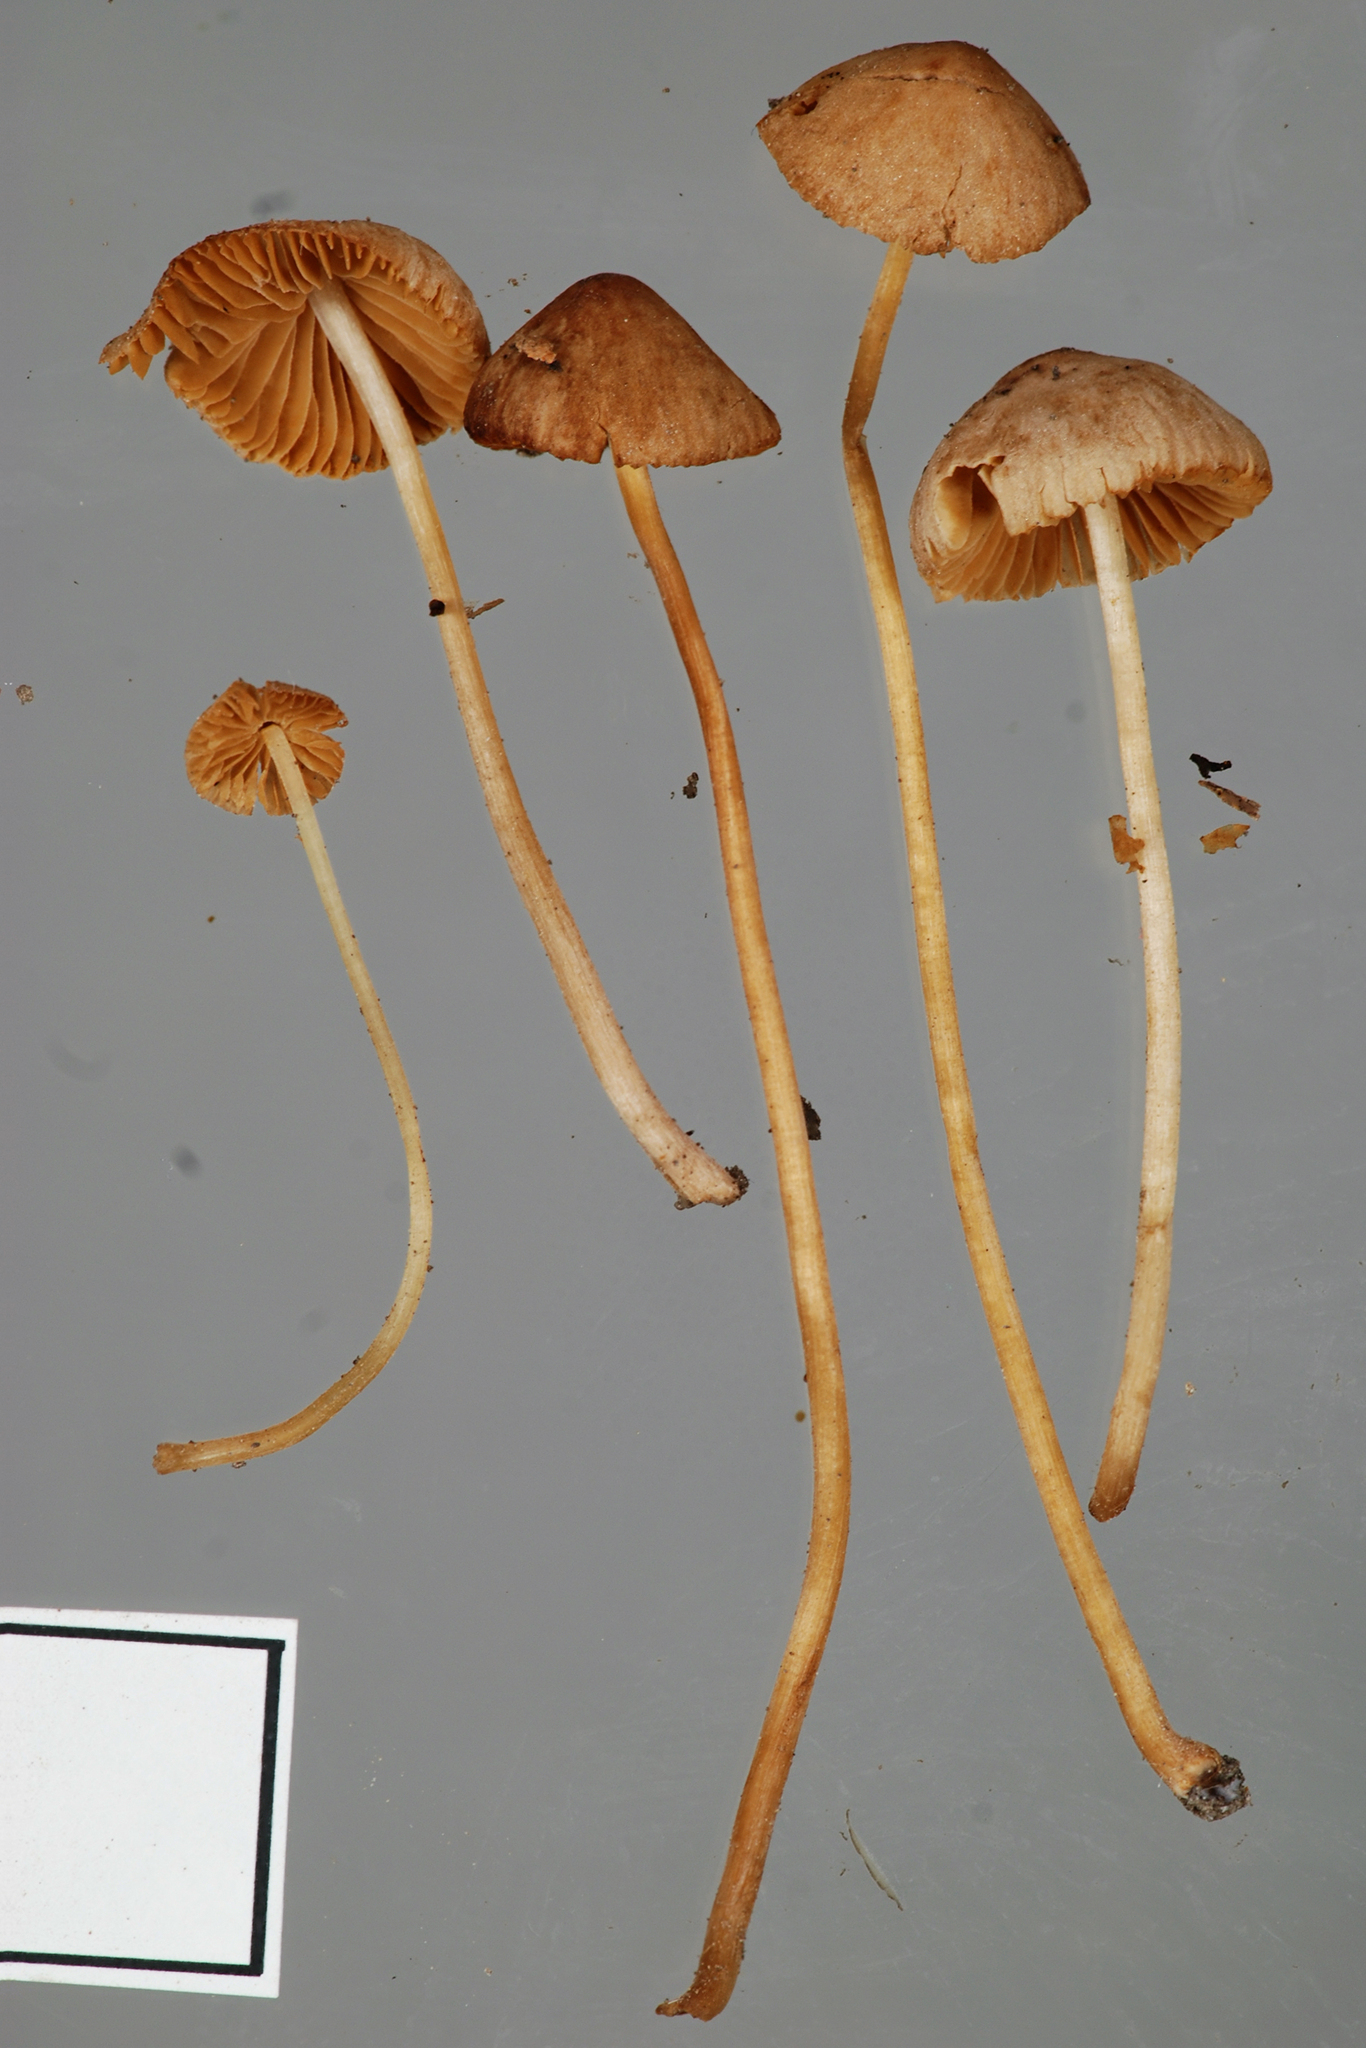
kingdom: Fungi
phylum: Basidiomycota
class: Agaricomycetes
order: Agaricales
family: Bolbitiaceae
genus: Conocybe
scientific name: Conocybe mesospora
